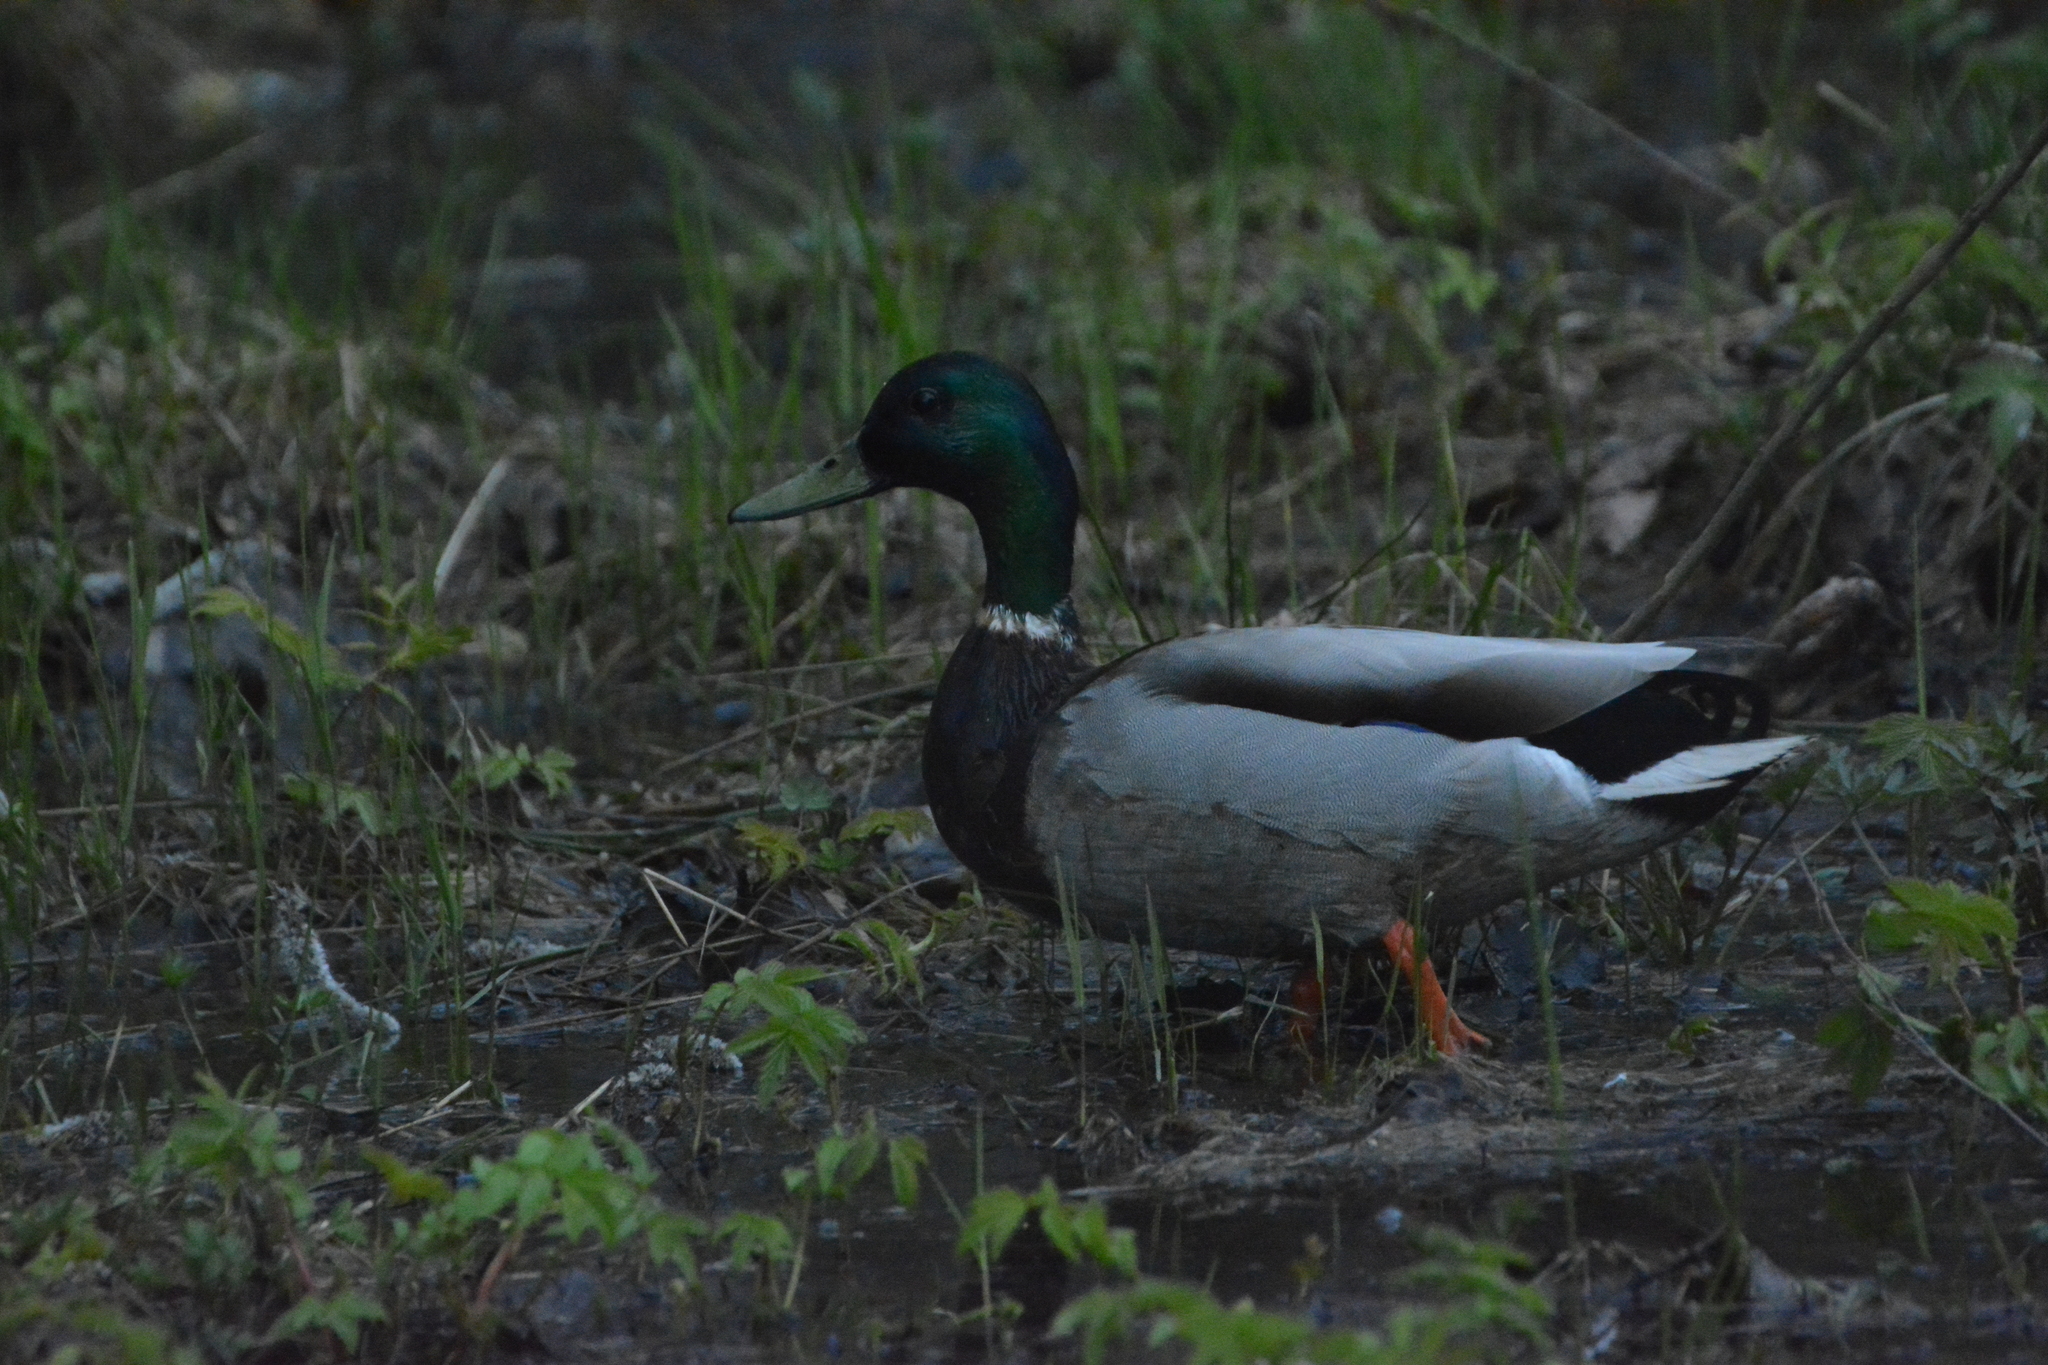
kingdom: Animalia
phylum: Chordata
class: Aves
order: Anseriformes
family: Anatidae
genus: Anas
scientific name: Anas platyrhynchos
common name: Mallard
